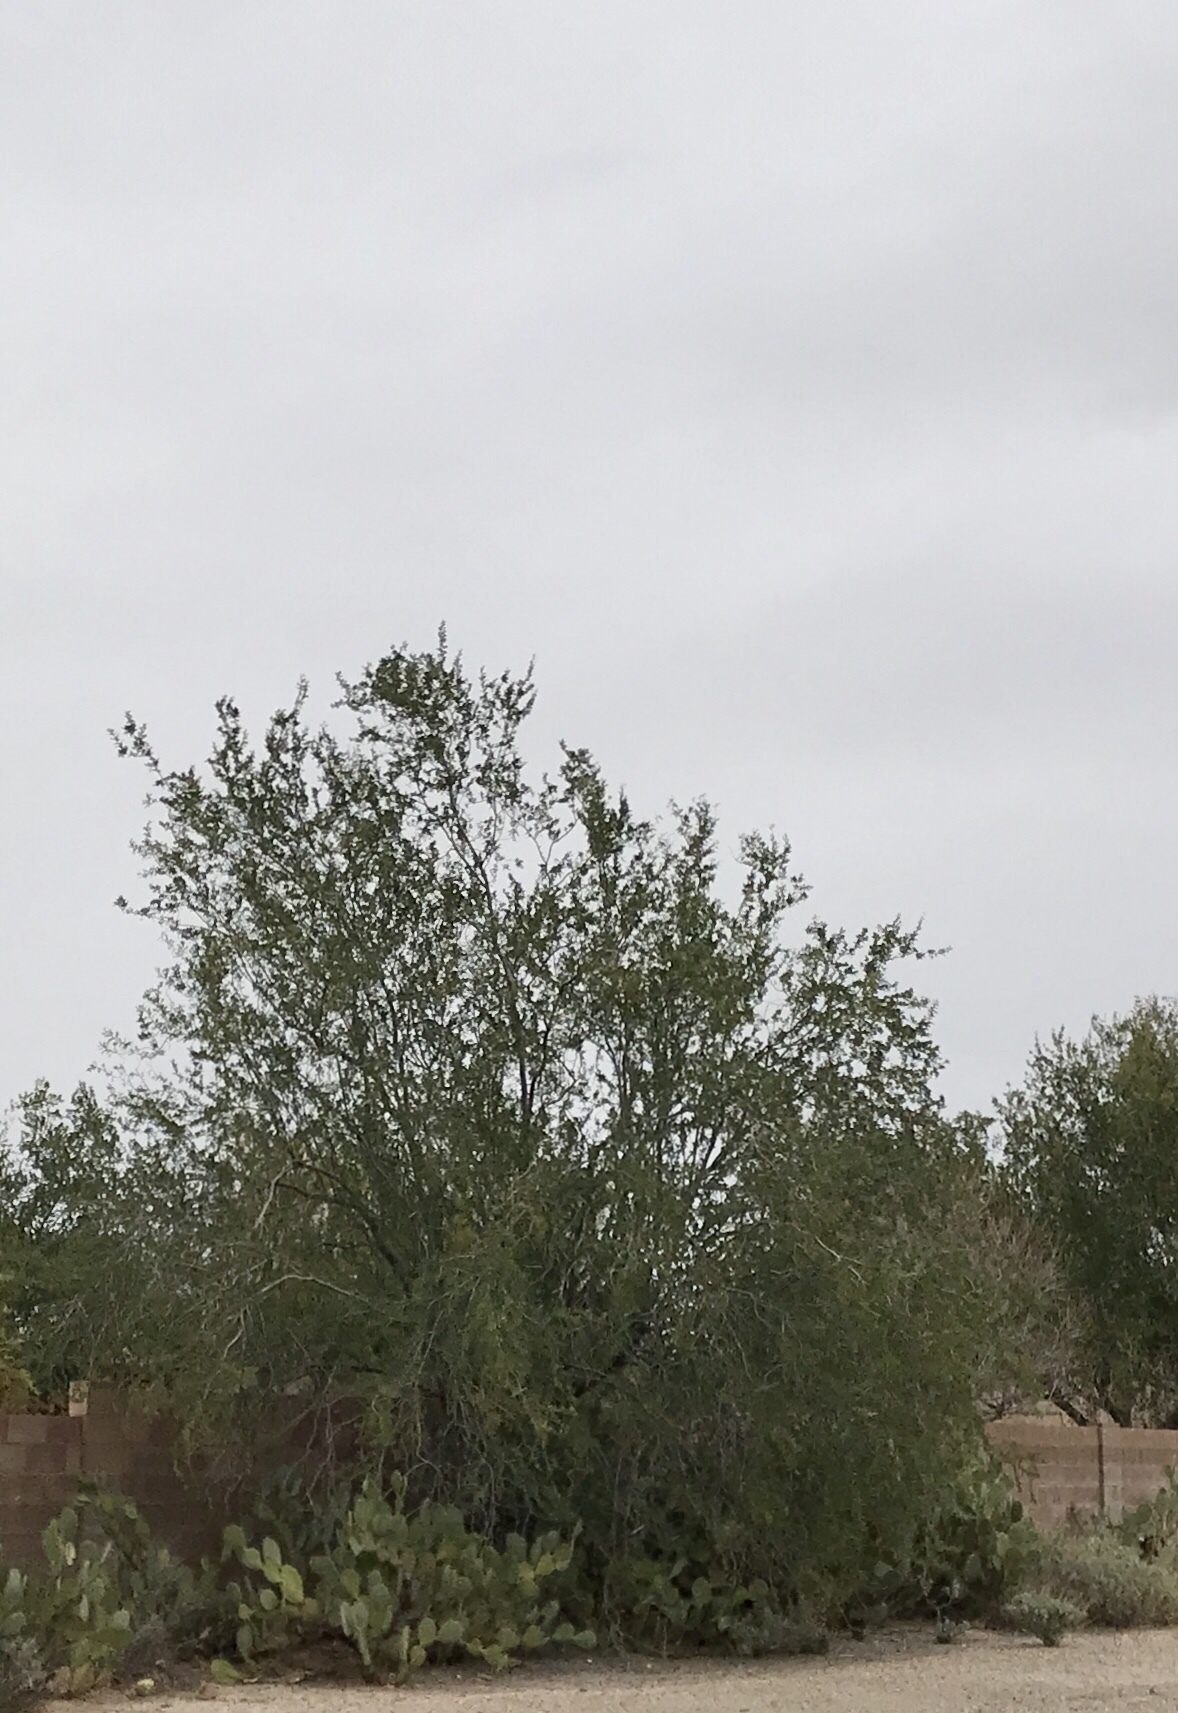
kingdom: Plantae
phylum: Tracheophyta
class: Magnoliopsida
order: Fabales
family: Fabaceae
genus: Olneya
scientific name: Olneya tesota
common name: Desert ironwood
